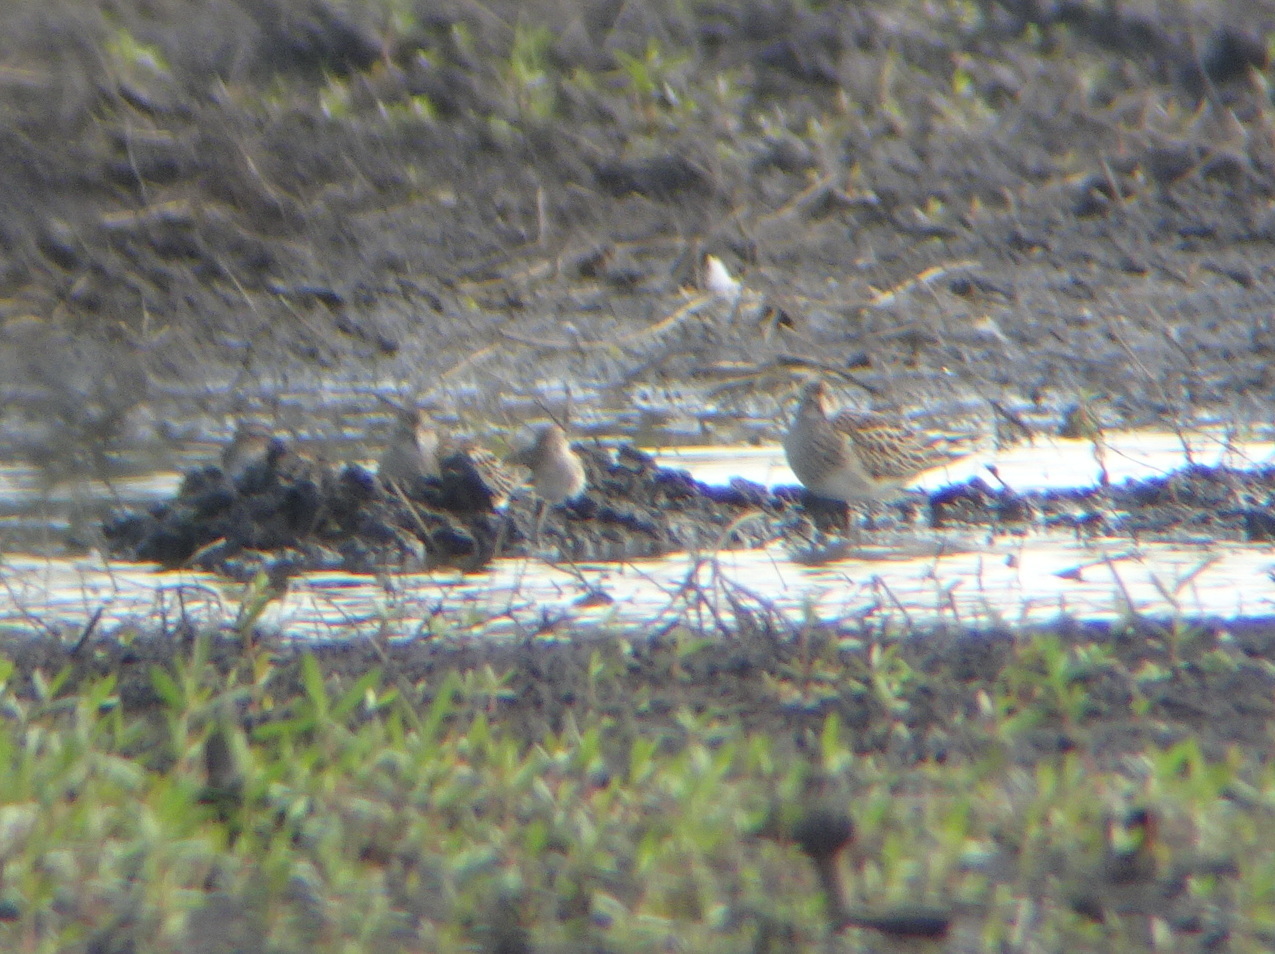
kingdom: Animalia
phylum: Chordata
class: Aves
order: Charadriiformes
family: Scolopacidae
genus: Calidris
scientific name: Calidris melanotos
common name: Pectoral sandpiper
